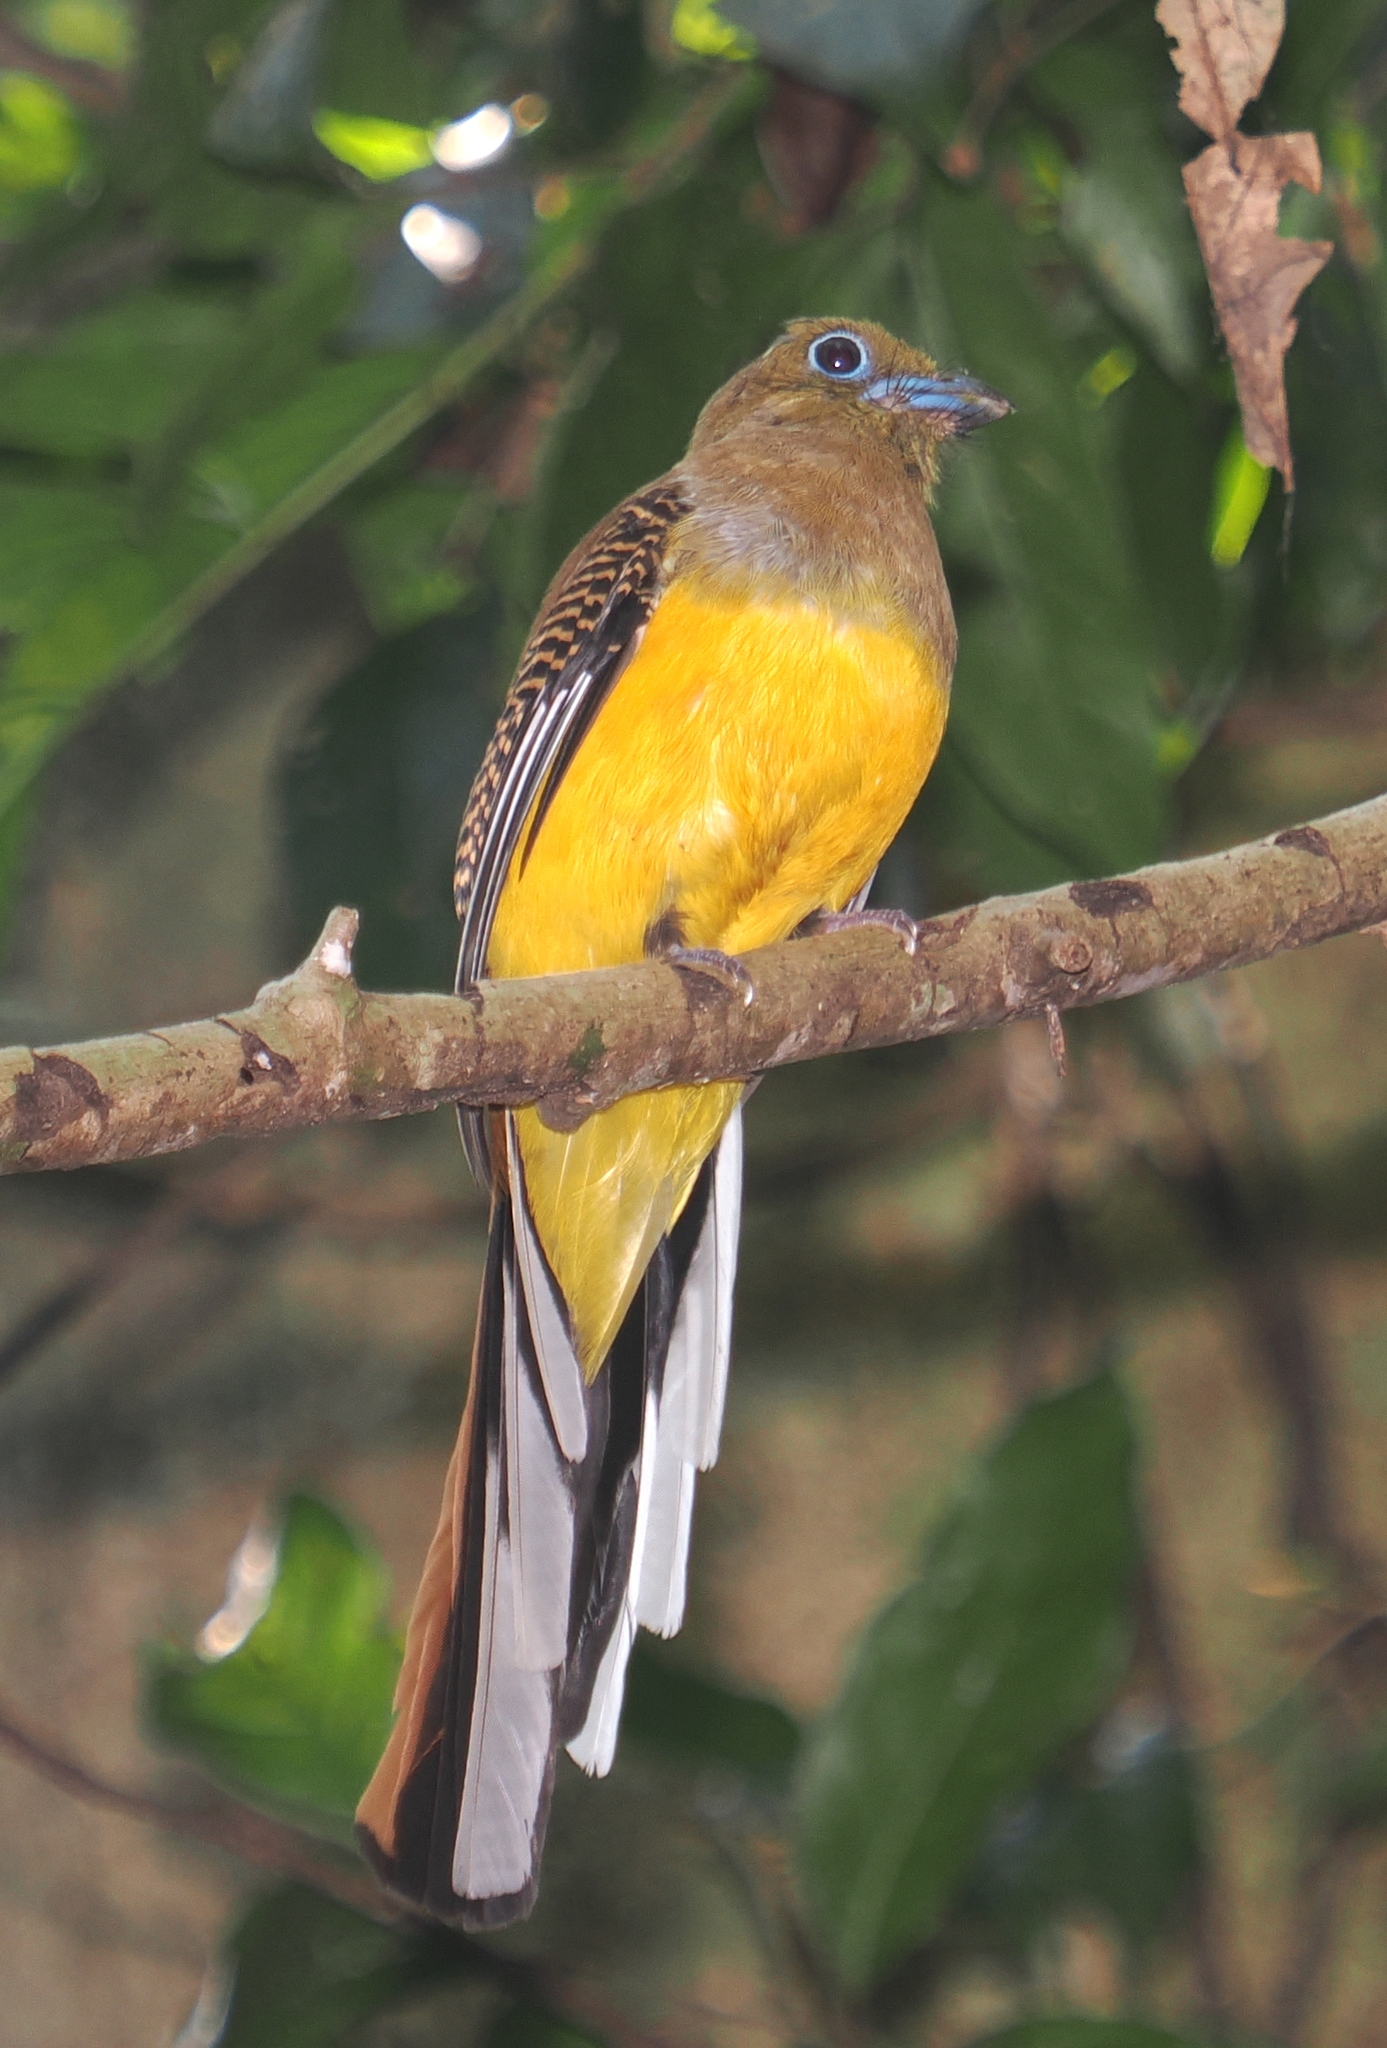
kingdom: Animalia
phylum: Chordata
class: Aves
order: Trogoniformes
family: Trogonidae
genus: Harpactes
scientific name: Harpactes oreskios
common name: Orange-breasted trogon
